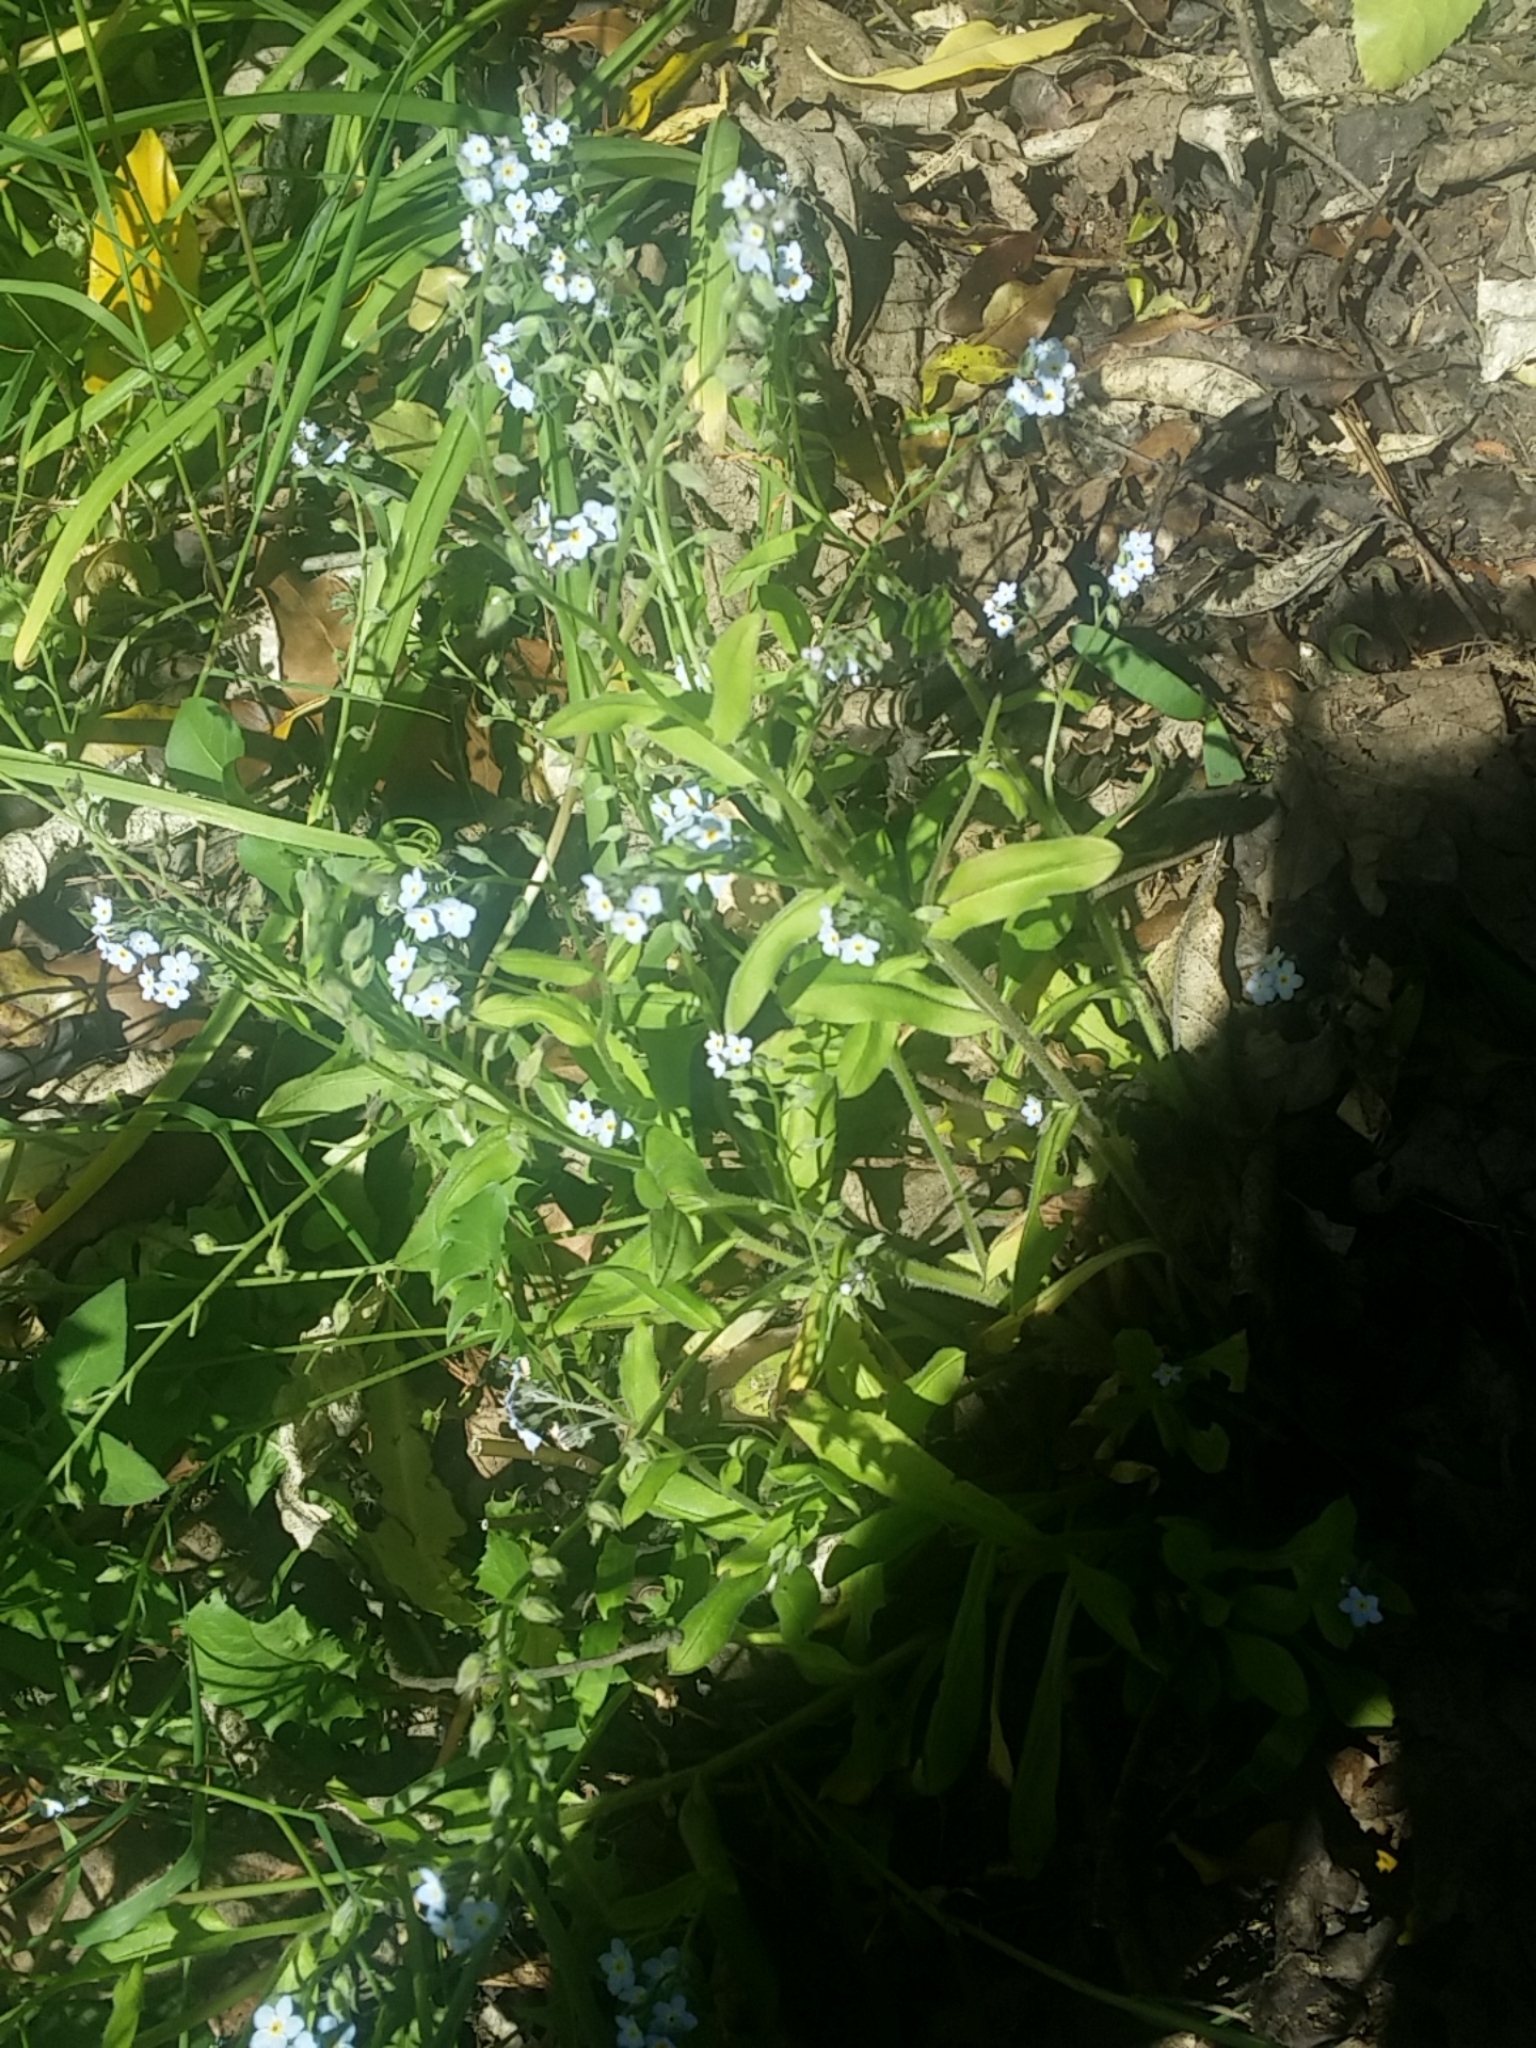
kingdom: Plantae
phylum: Tracheophyta
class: Magnoliopsida
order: Boraginales
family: Boraginaceae
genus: Myosotis
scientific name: Myosotis sylvatica
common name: Wood forget-me-not
